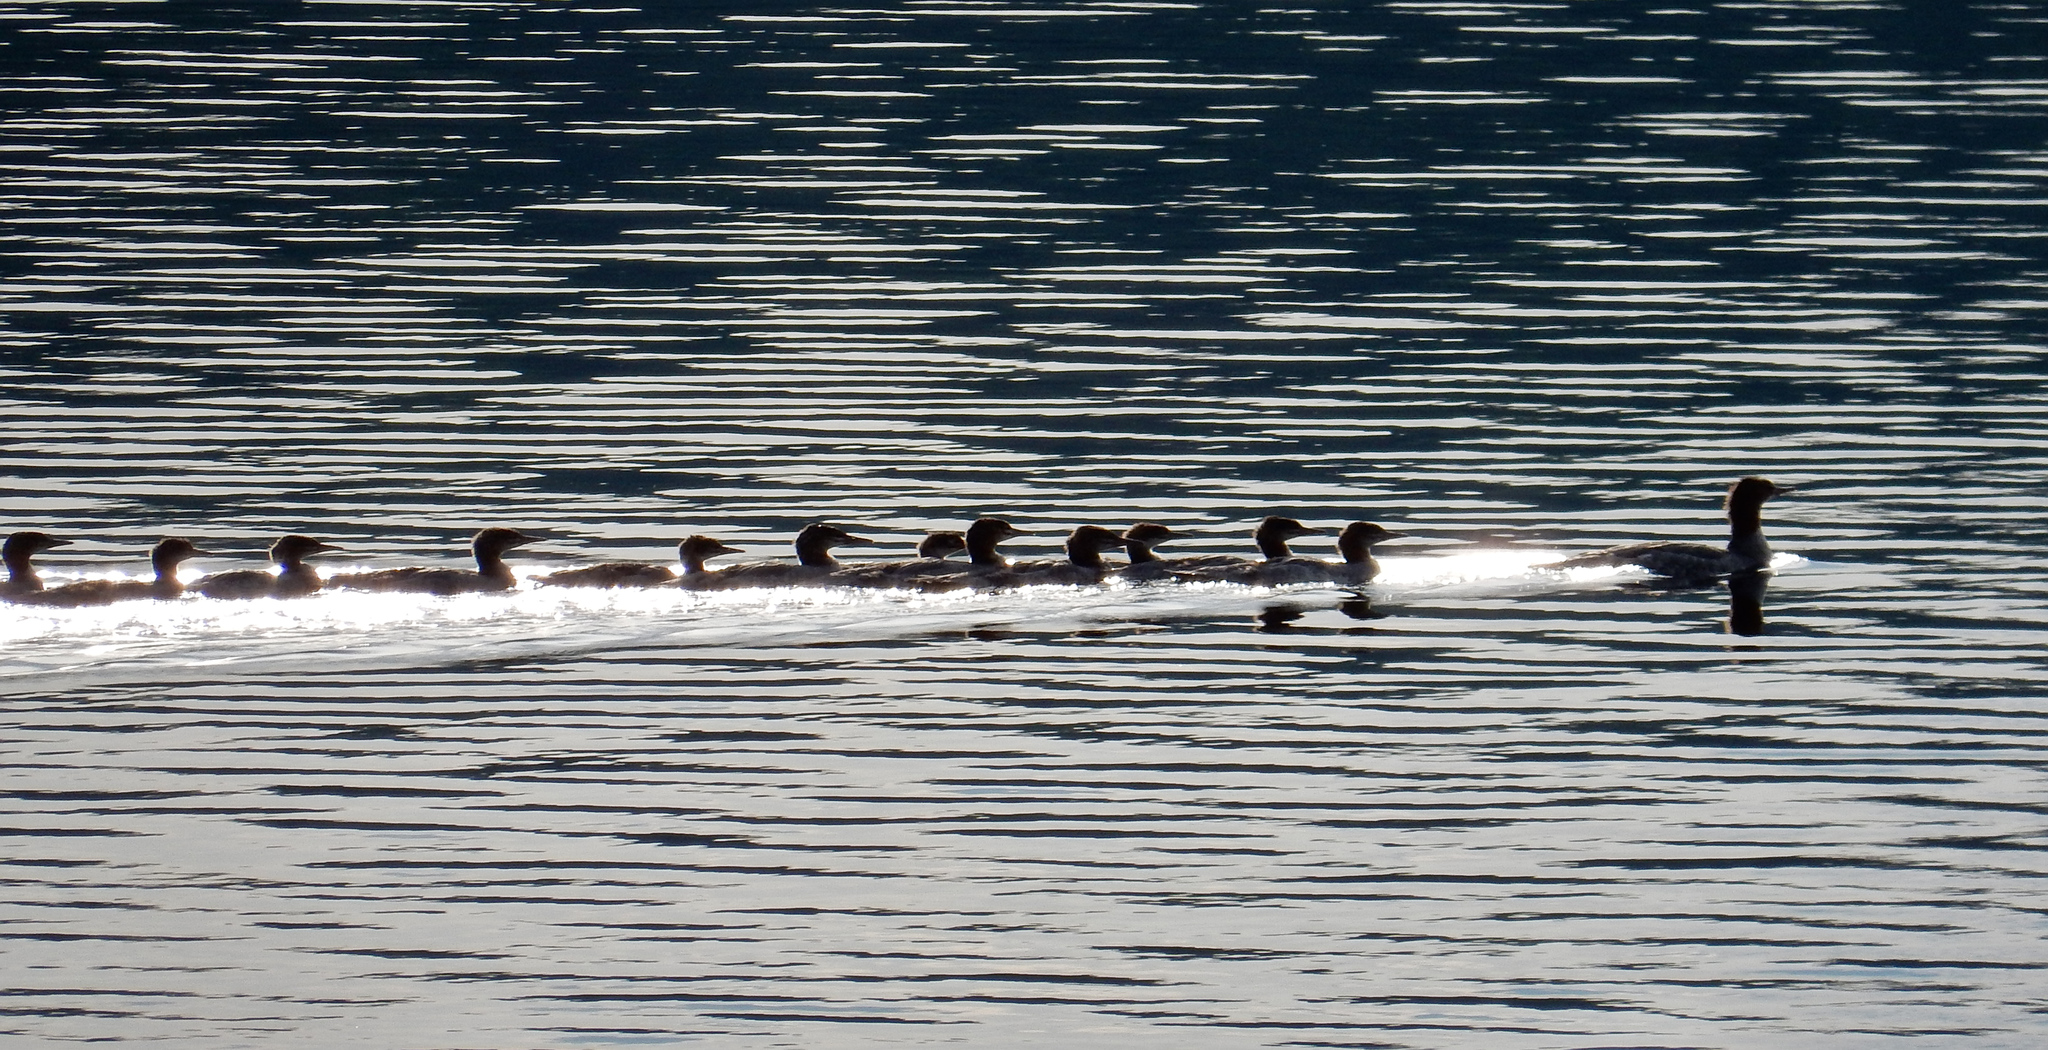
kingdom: Animalia
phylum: Chordata
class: Aves
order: Anseriformes
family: Anatidae
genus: Mergus
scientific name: Mergus merganser
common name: Common merganser
